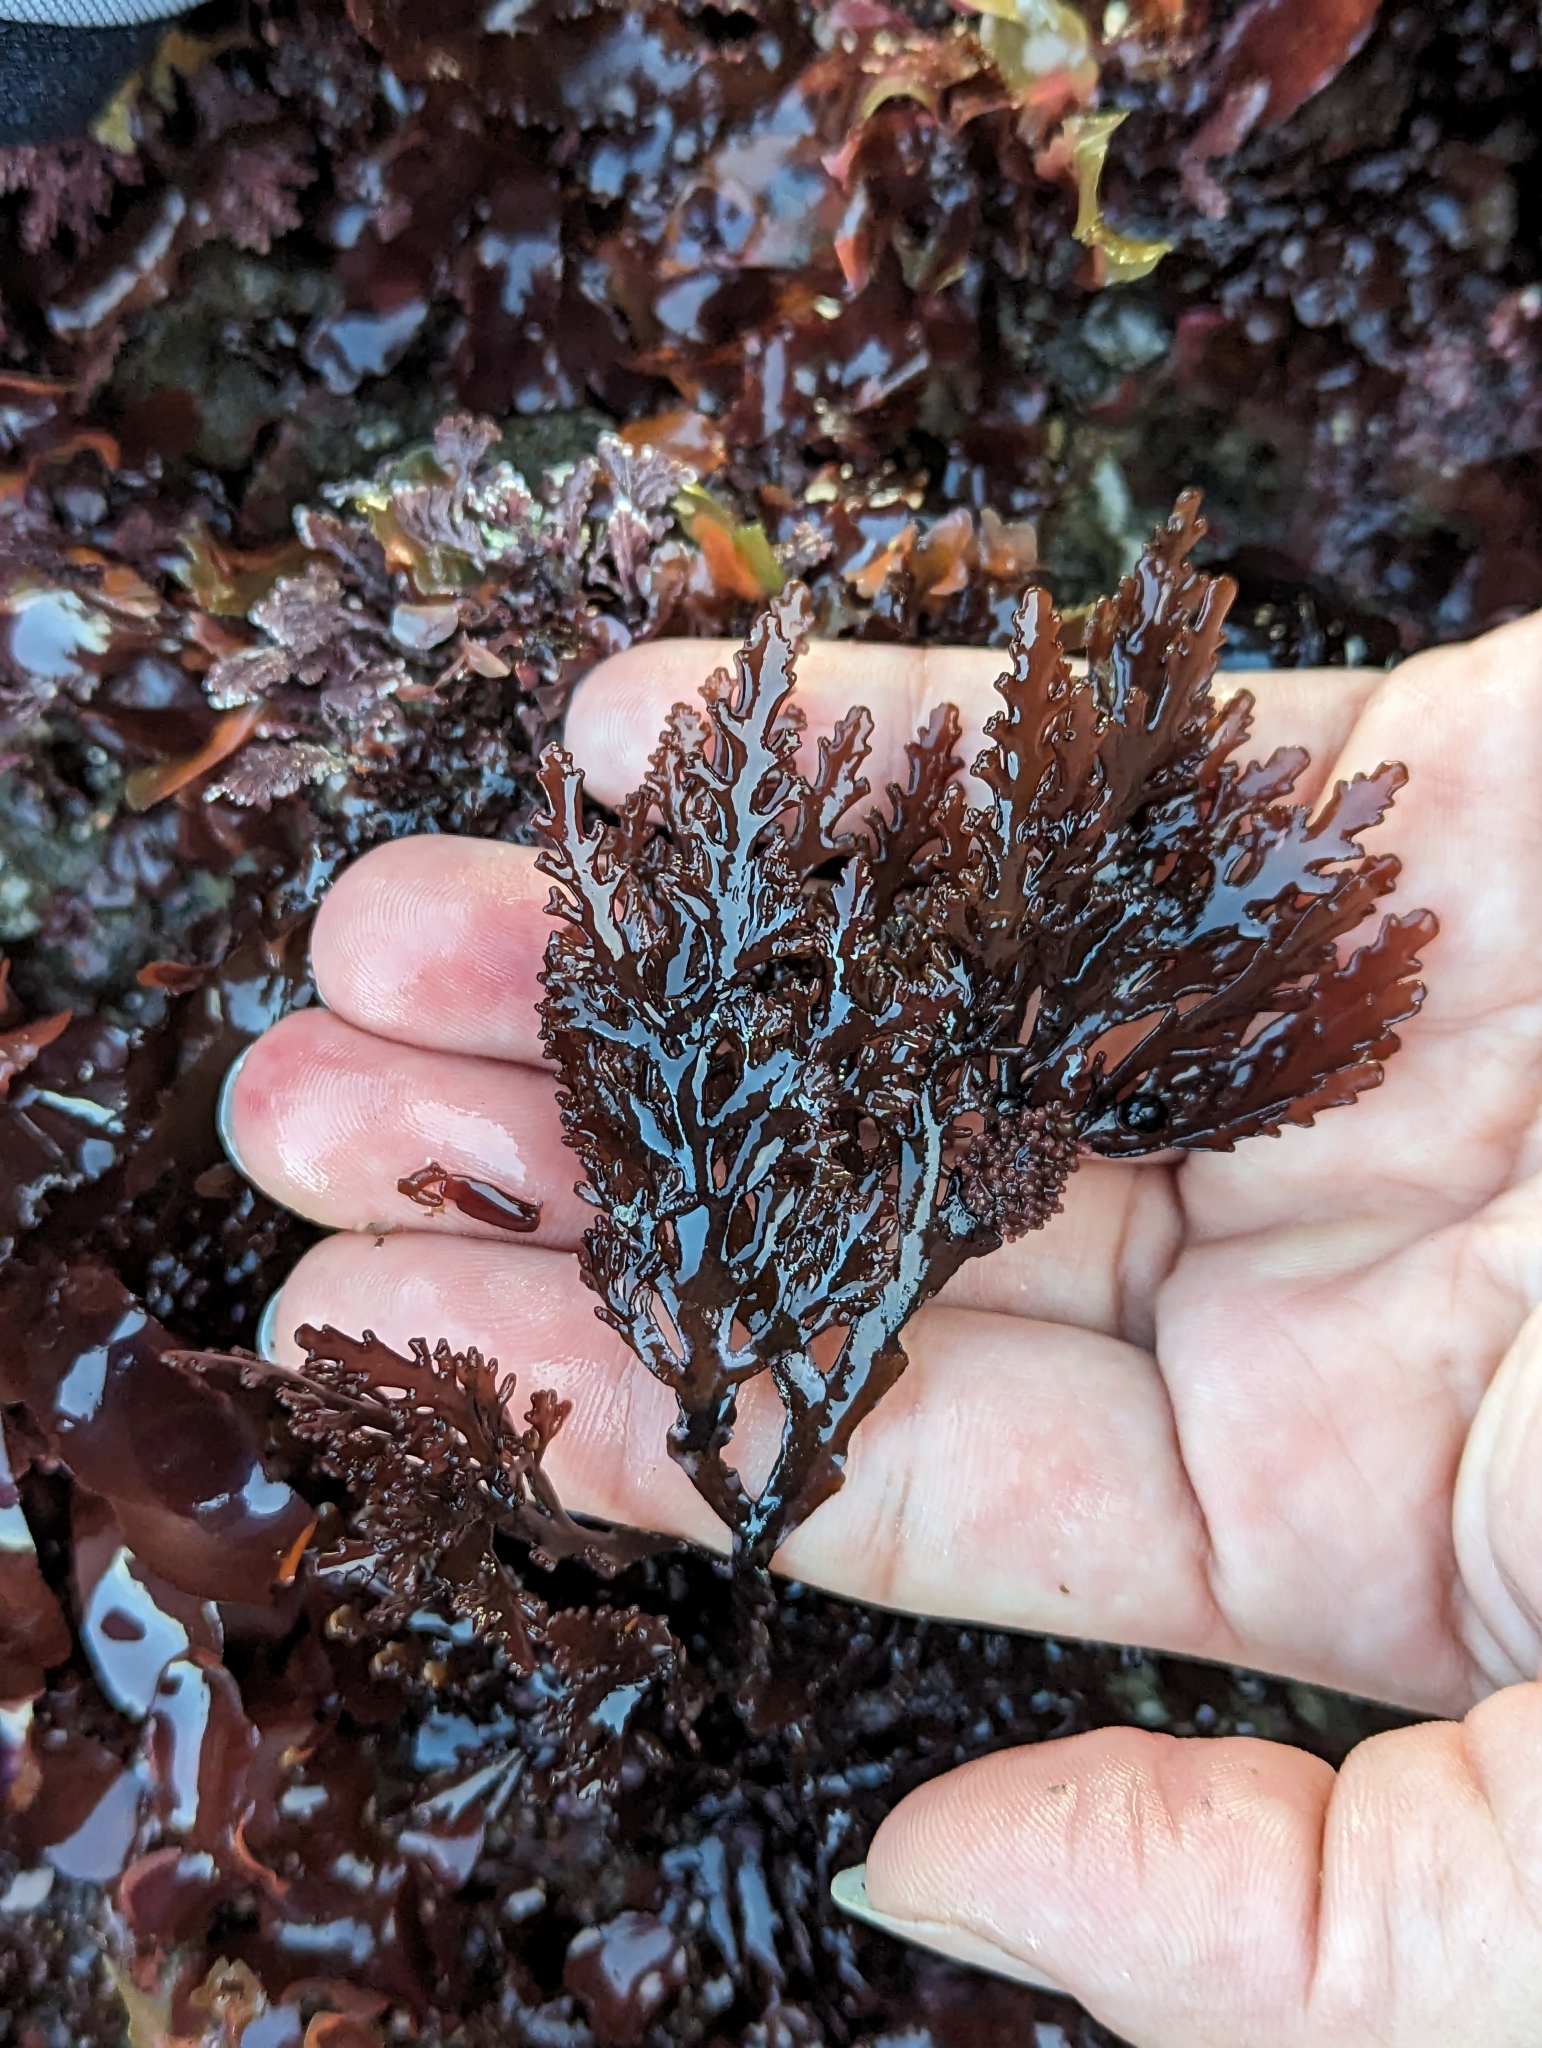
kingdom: Plantae
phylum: Rhodophyta
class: Florideophyceae
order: Ceramiales
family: Rhodomelaceae
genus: Osmundea
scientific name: Osmundea spectabilis
